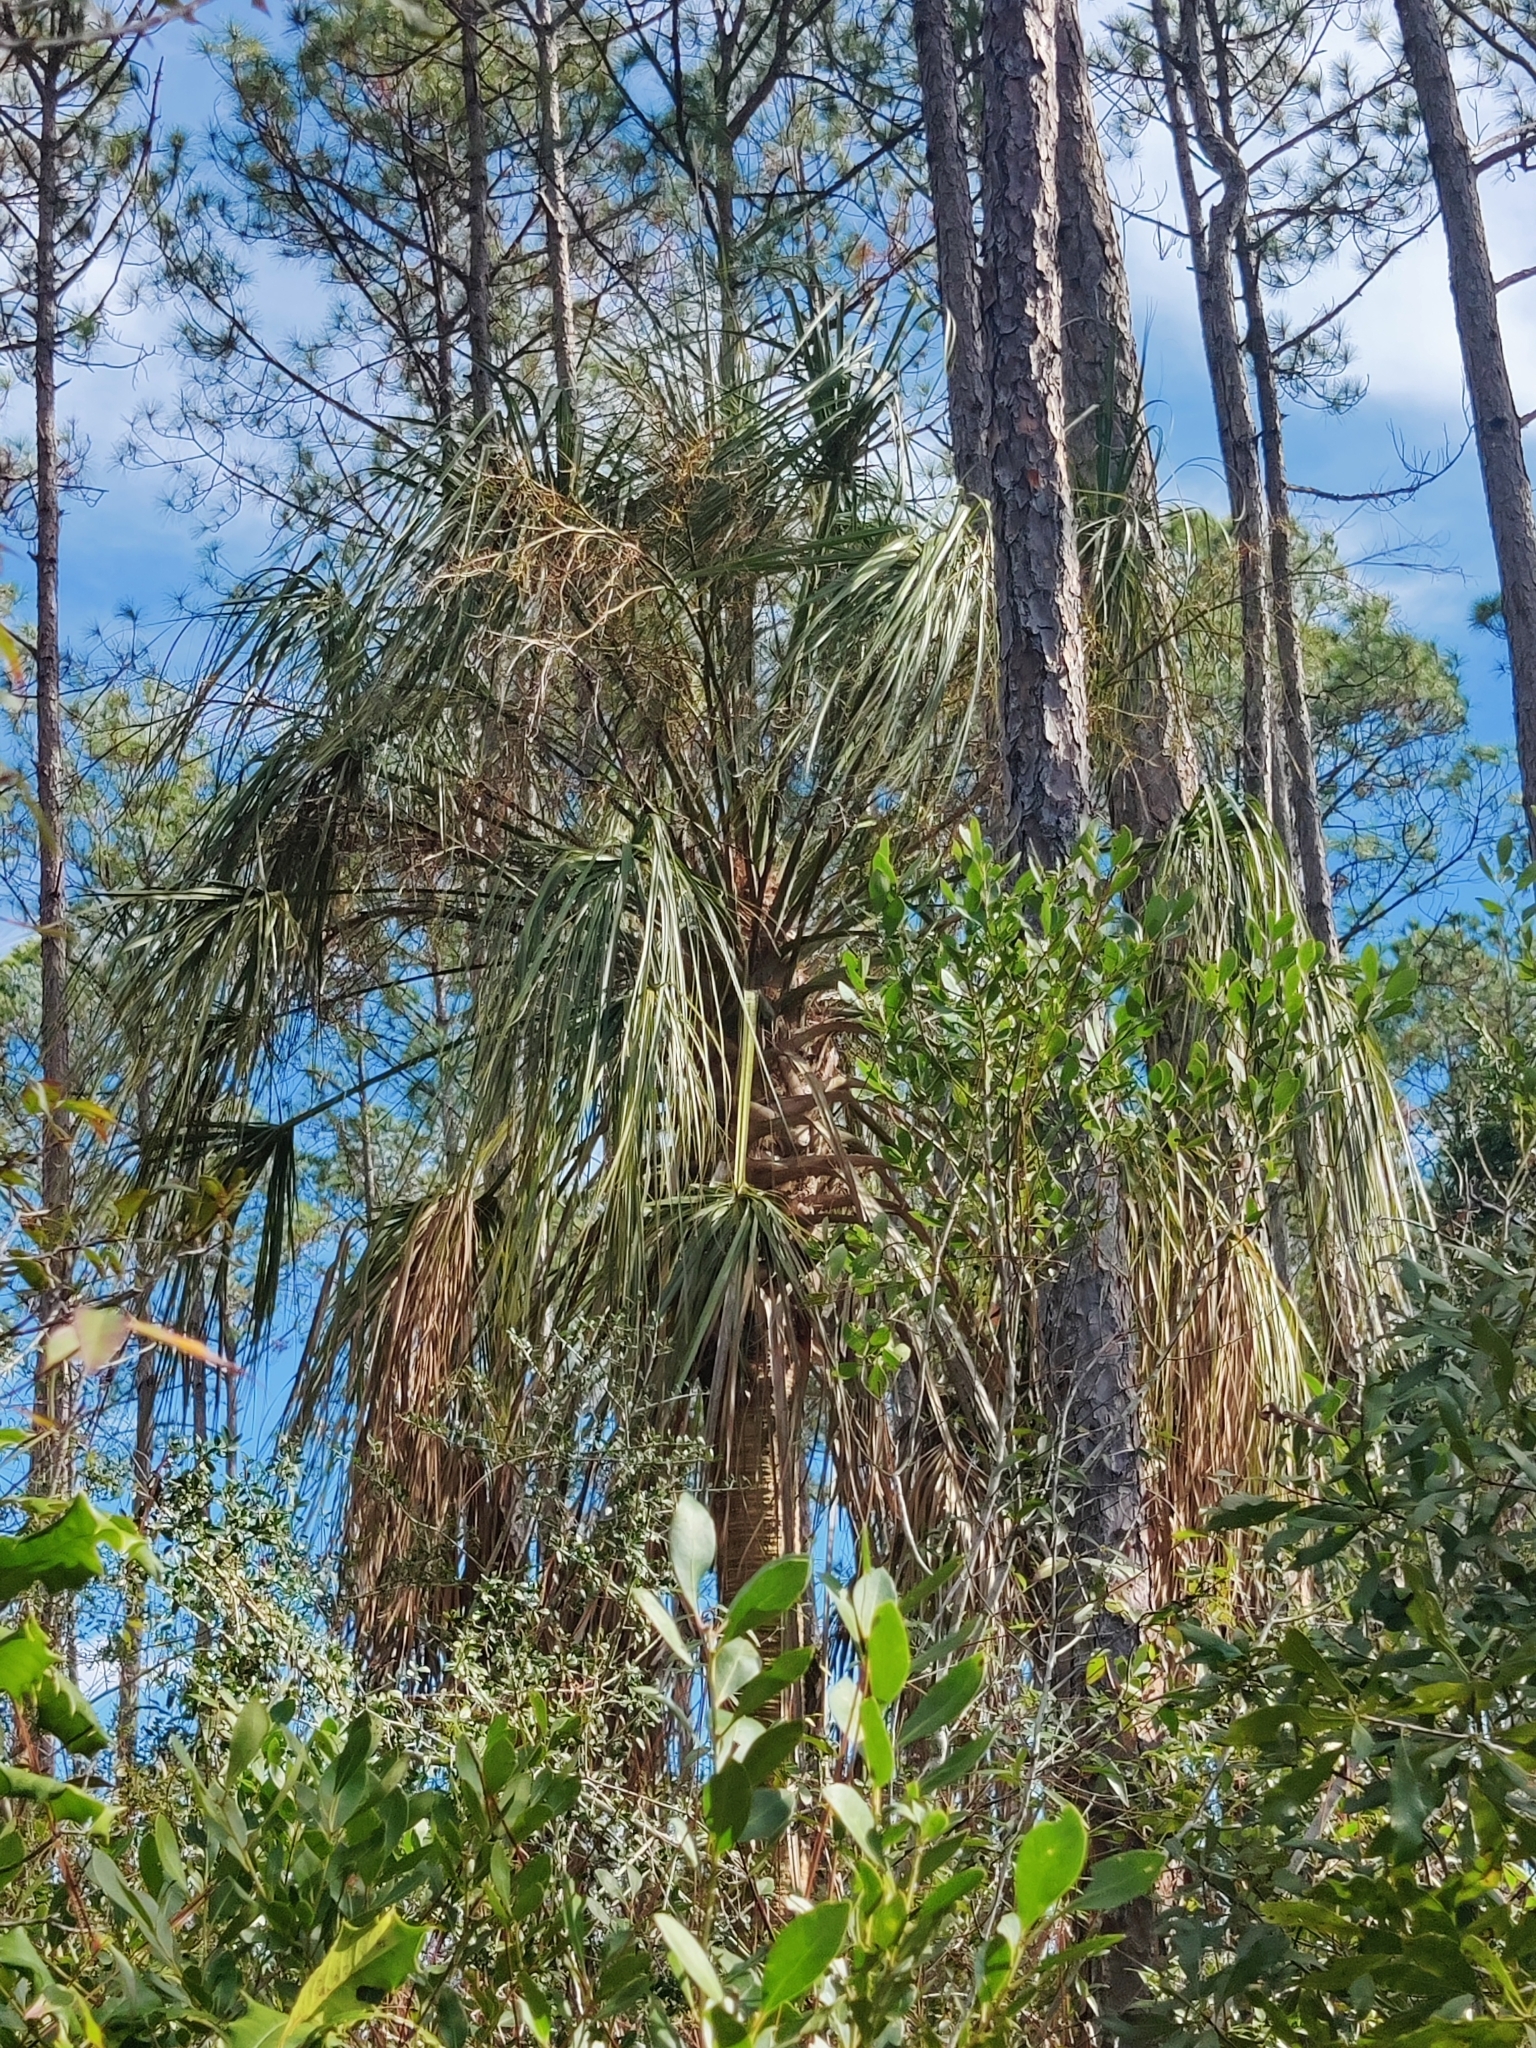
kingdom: Plantae
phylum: Tracheophyta
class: Liliopsida
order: Arecales
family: Arecaceae
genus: Sabal
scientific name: Sabal palmetto
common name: Blue palmetto
